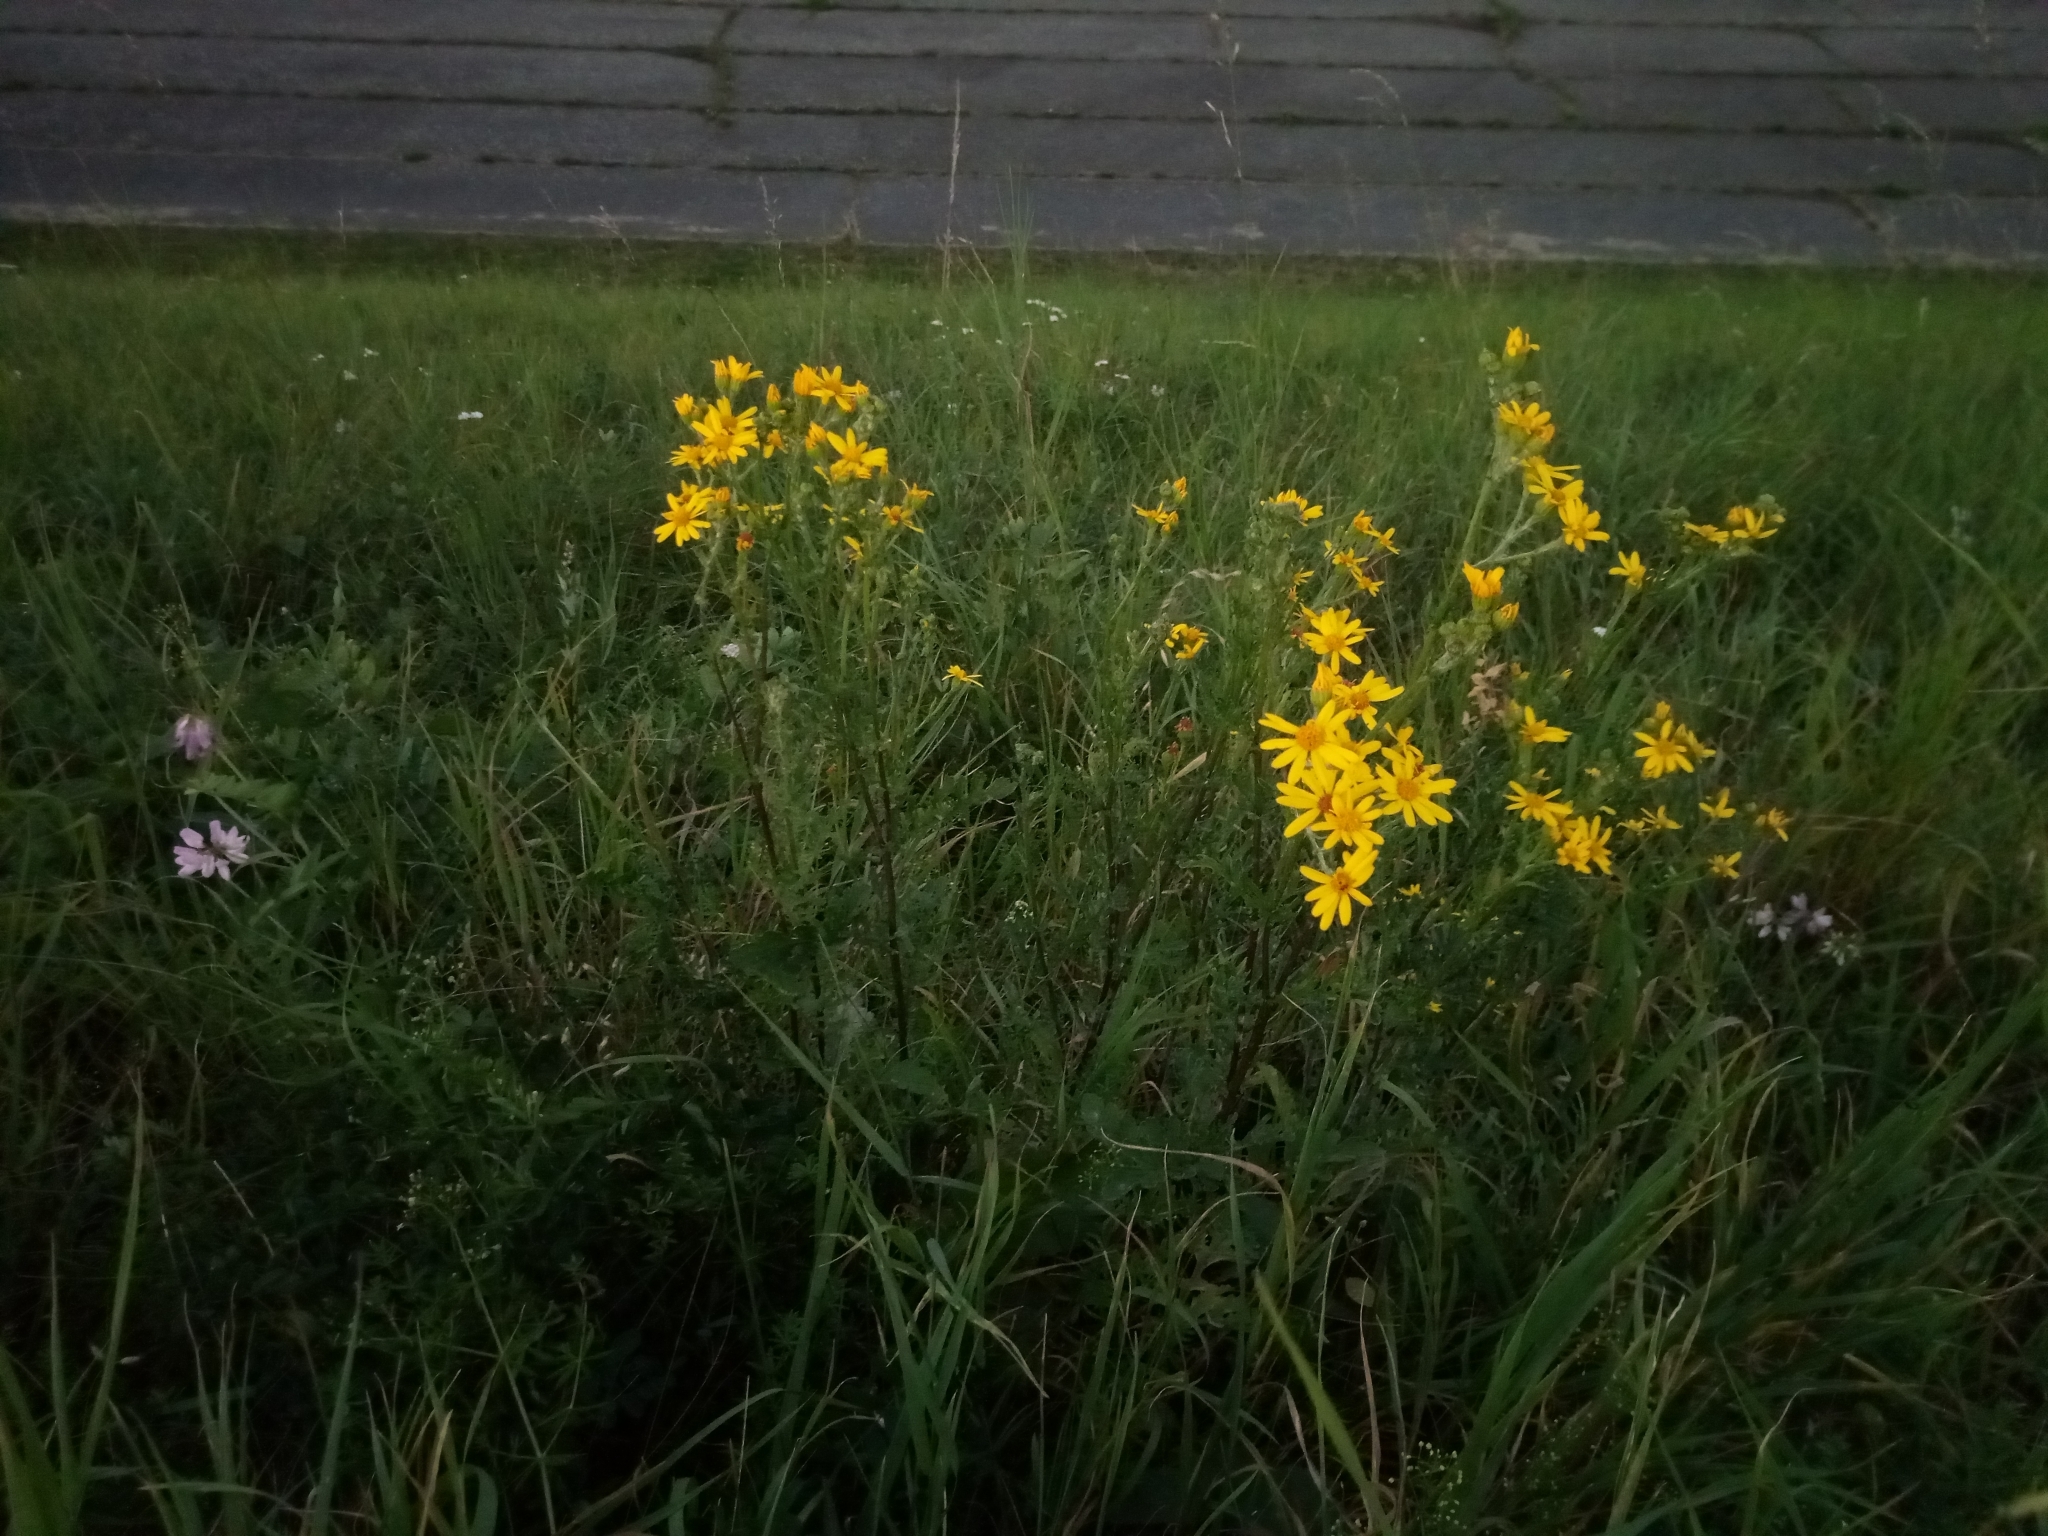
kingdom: Plantae
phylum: Tracheophyta
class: Magnoliopsida
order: Asterales
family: Asteraceae
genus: Jacobaea
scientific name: Jacobaea vulgaris
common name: Stinking willie
